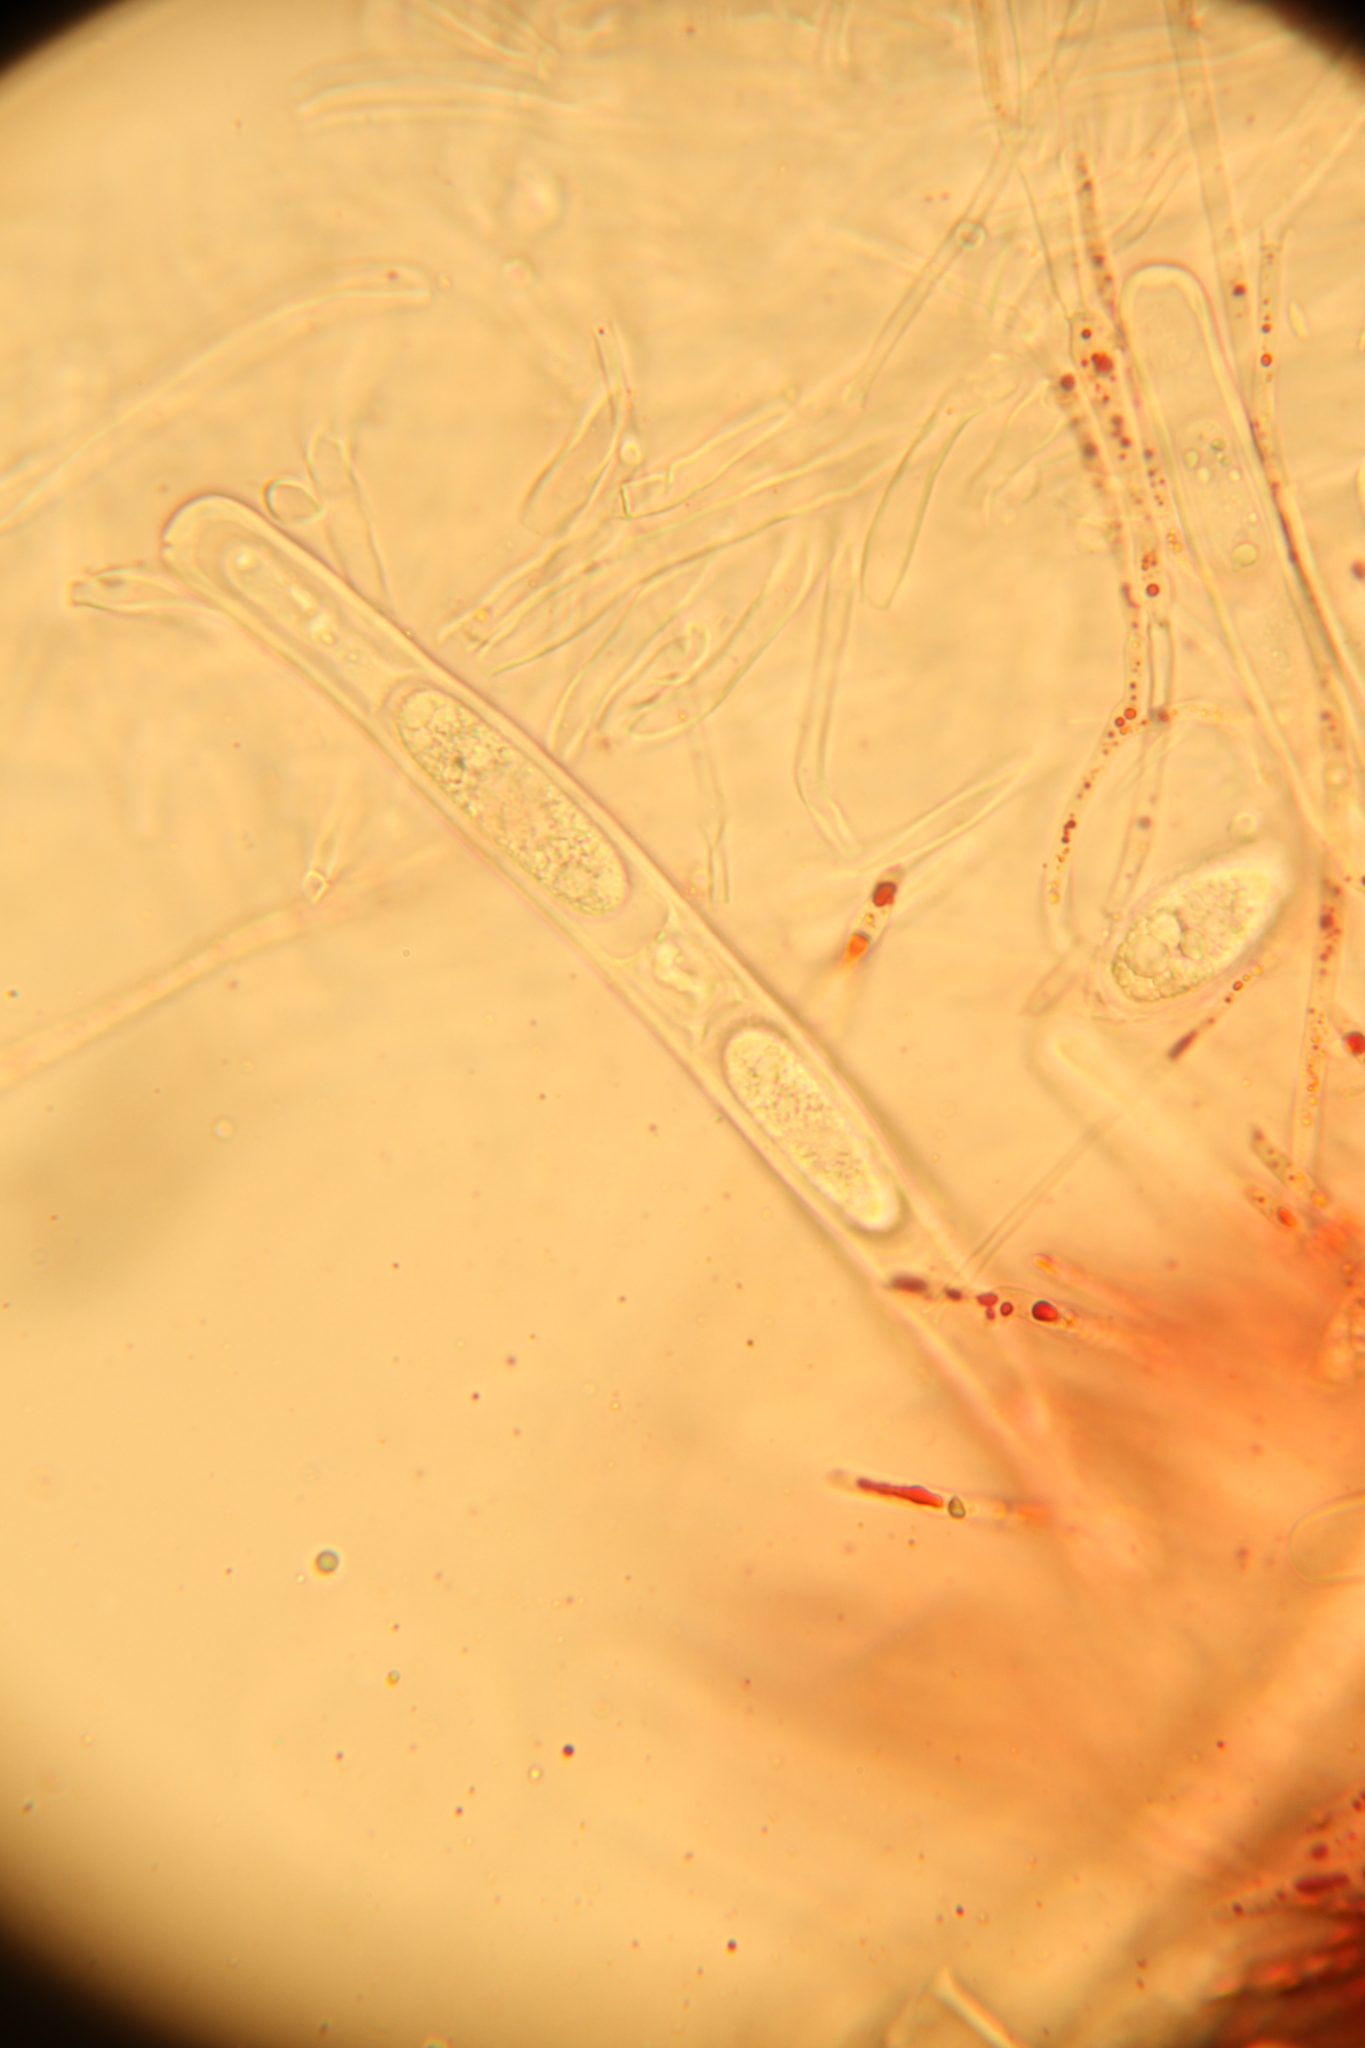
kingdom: Fungi
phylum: Ascomycota
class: Pezizomycetes
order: Pezizales
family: Sarcoscyphaceae
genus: Sarcoscypha
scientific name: Sarcoscypha austriaca
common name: Scarlet elfcup
